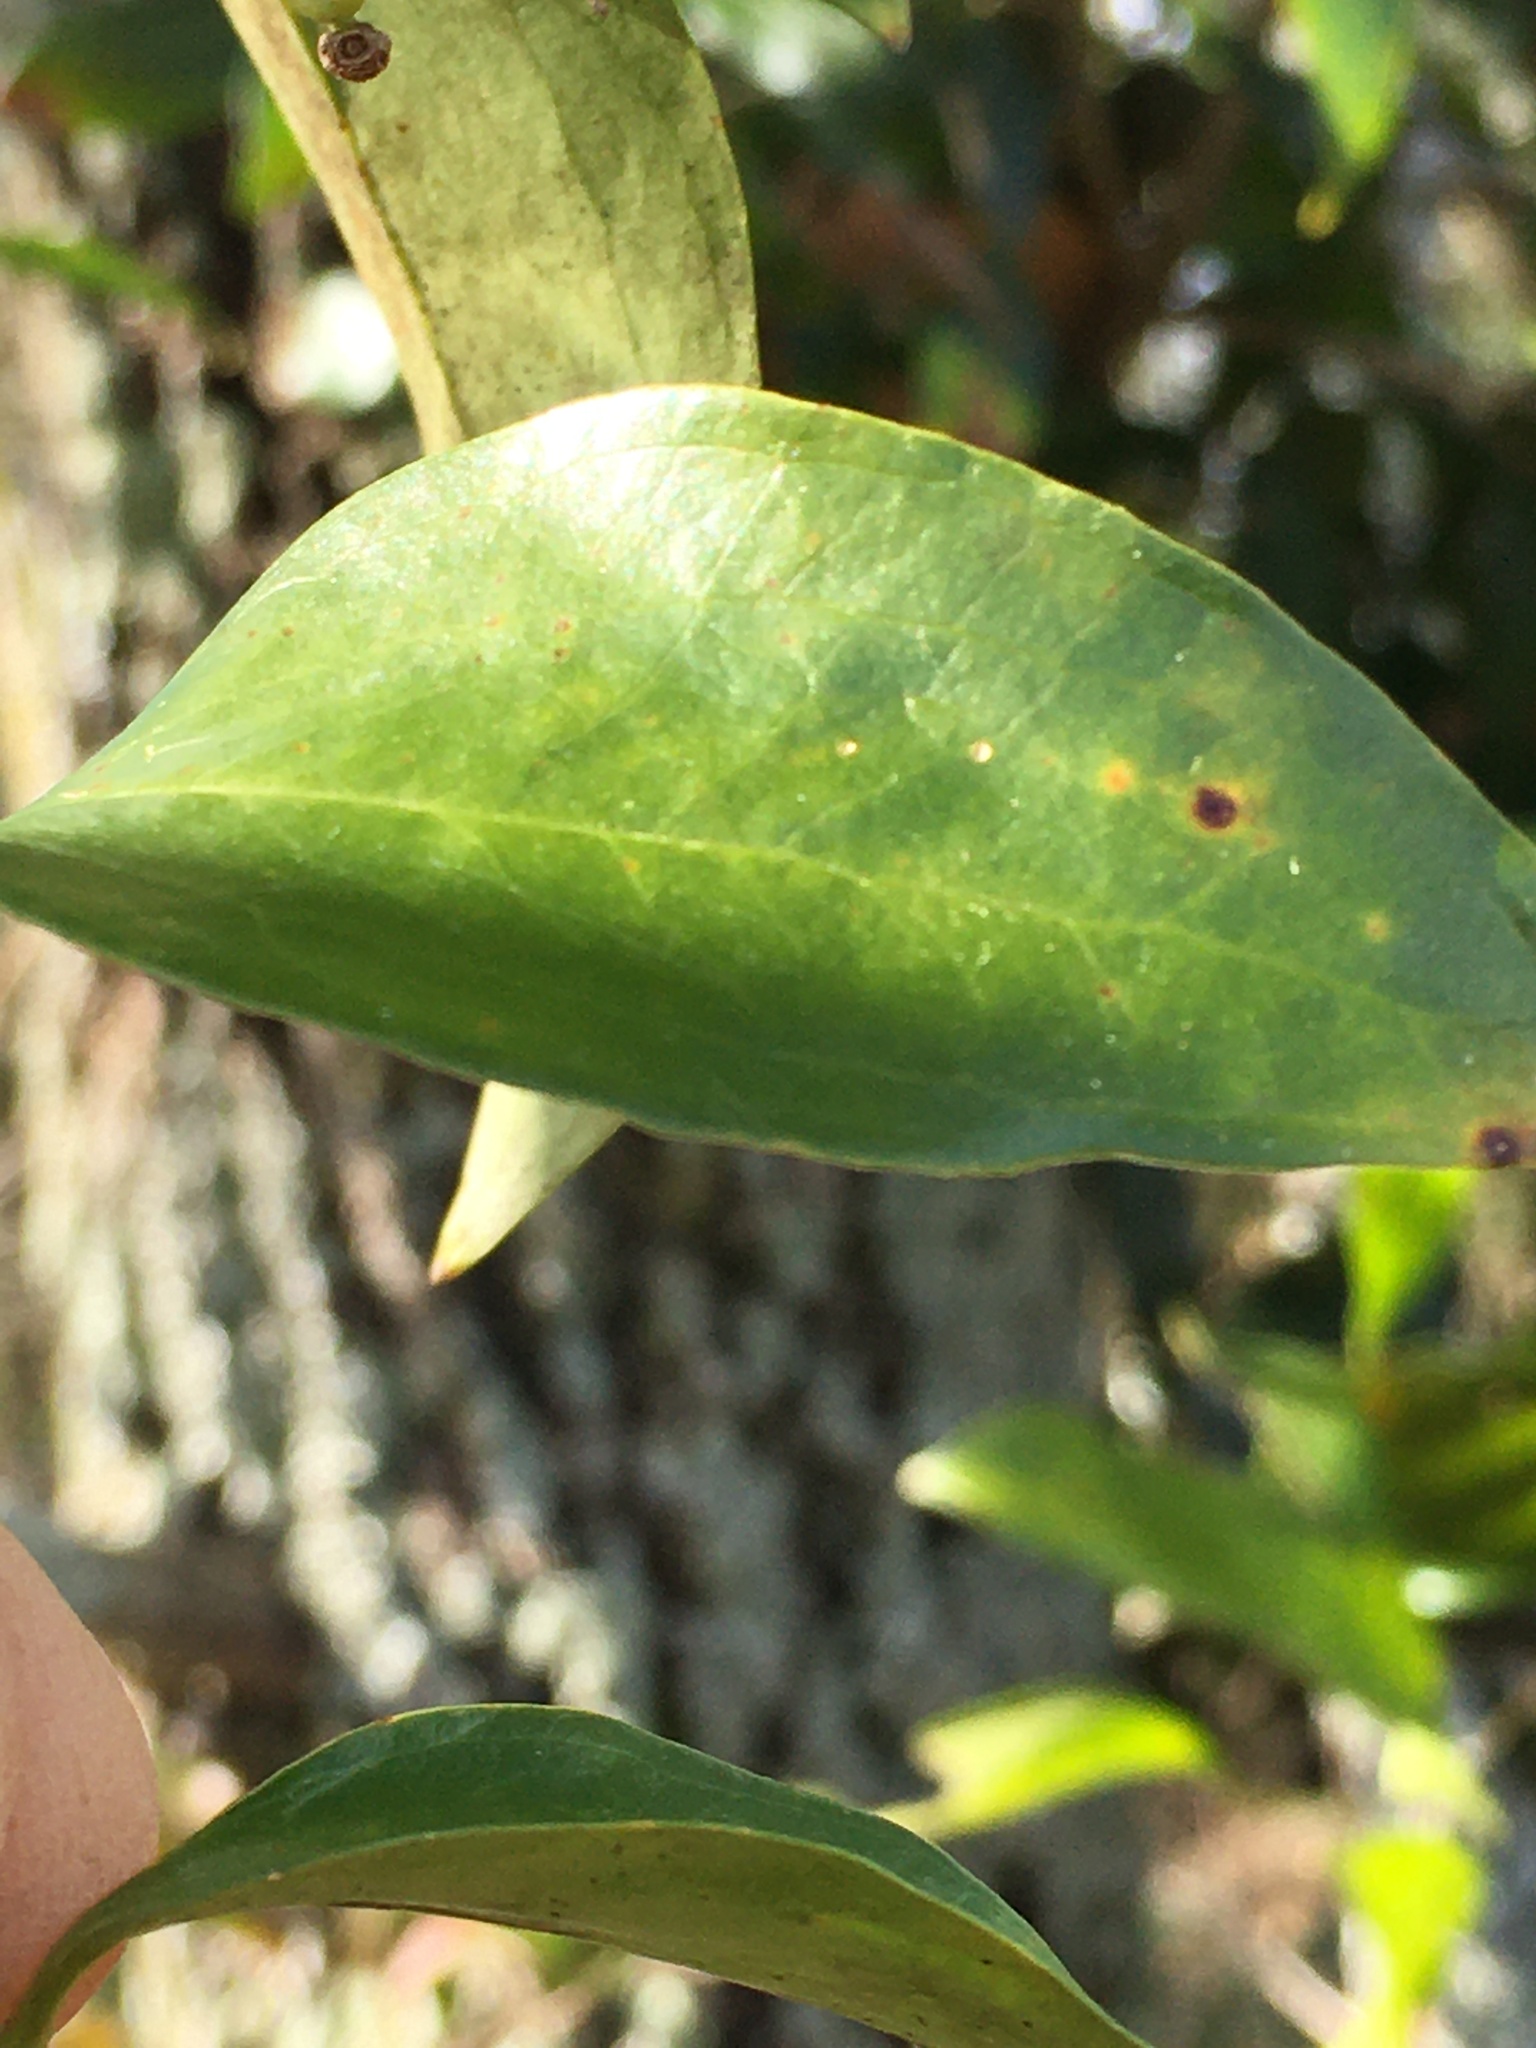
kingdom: Plantae
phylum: Tracheophyta
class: Liliopsida
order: Liliales
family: Smilacaceae
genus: Smilax
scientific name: Smilax maritima
